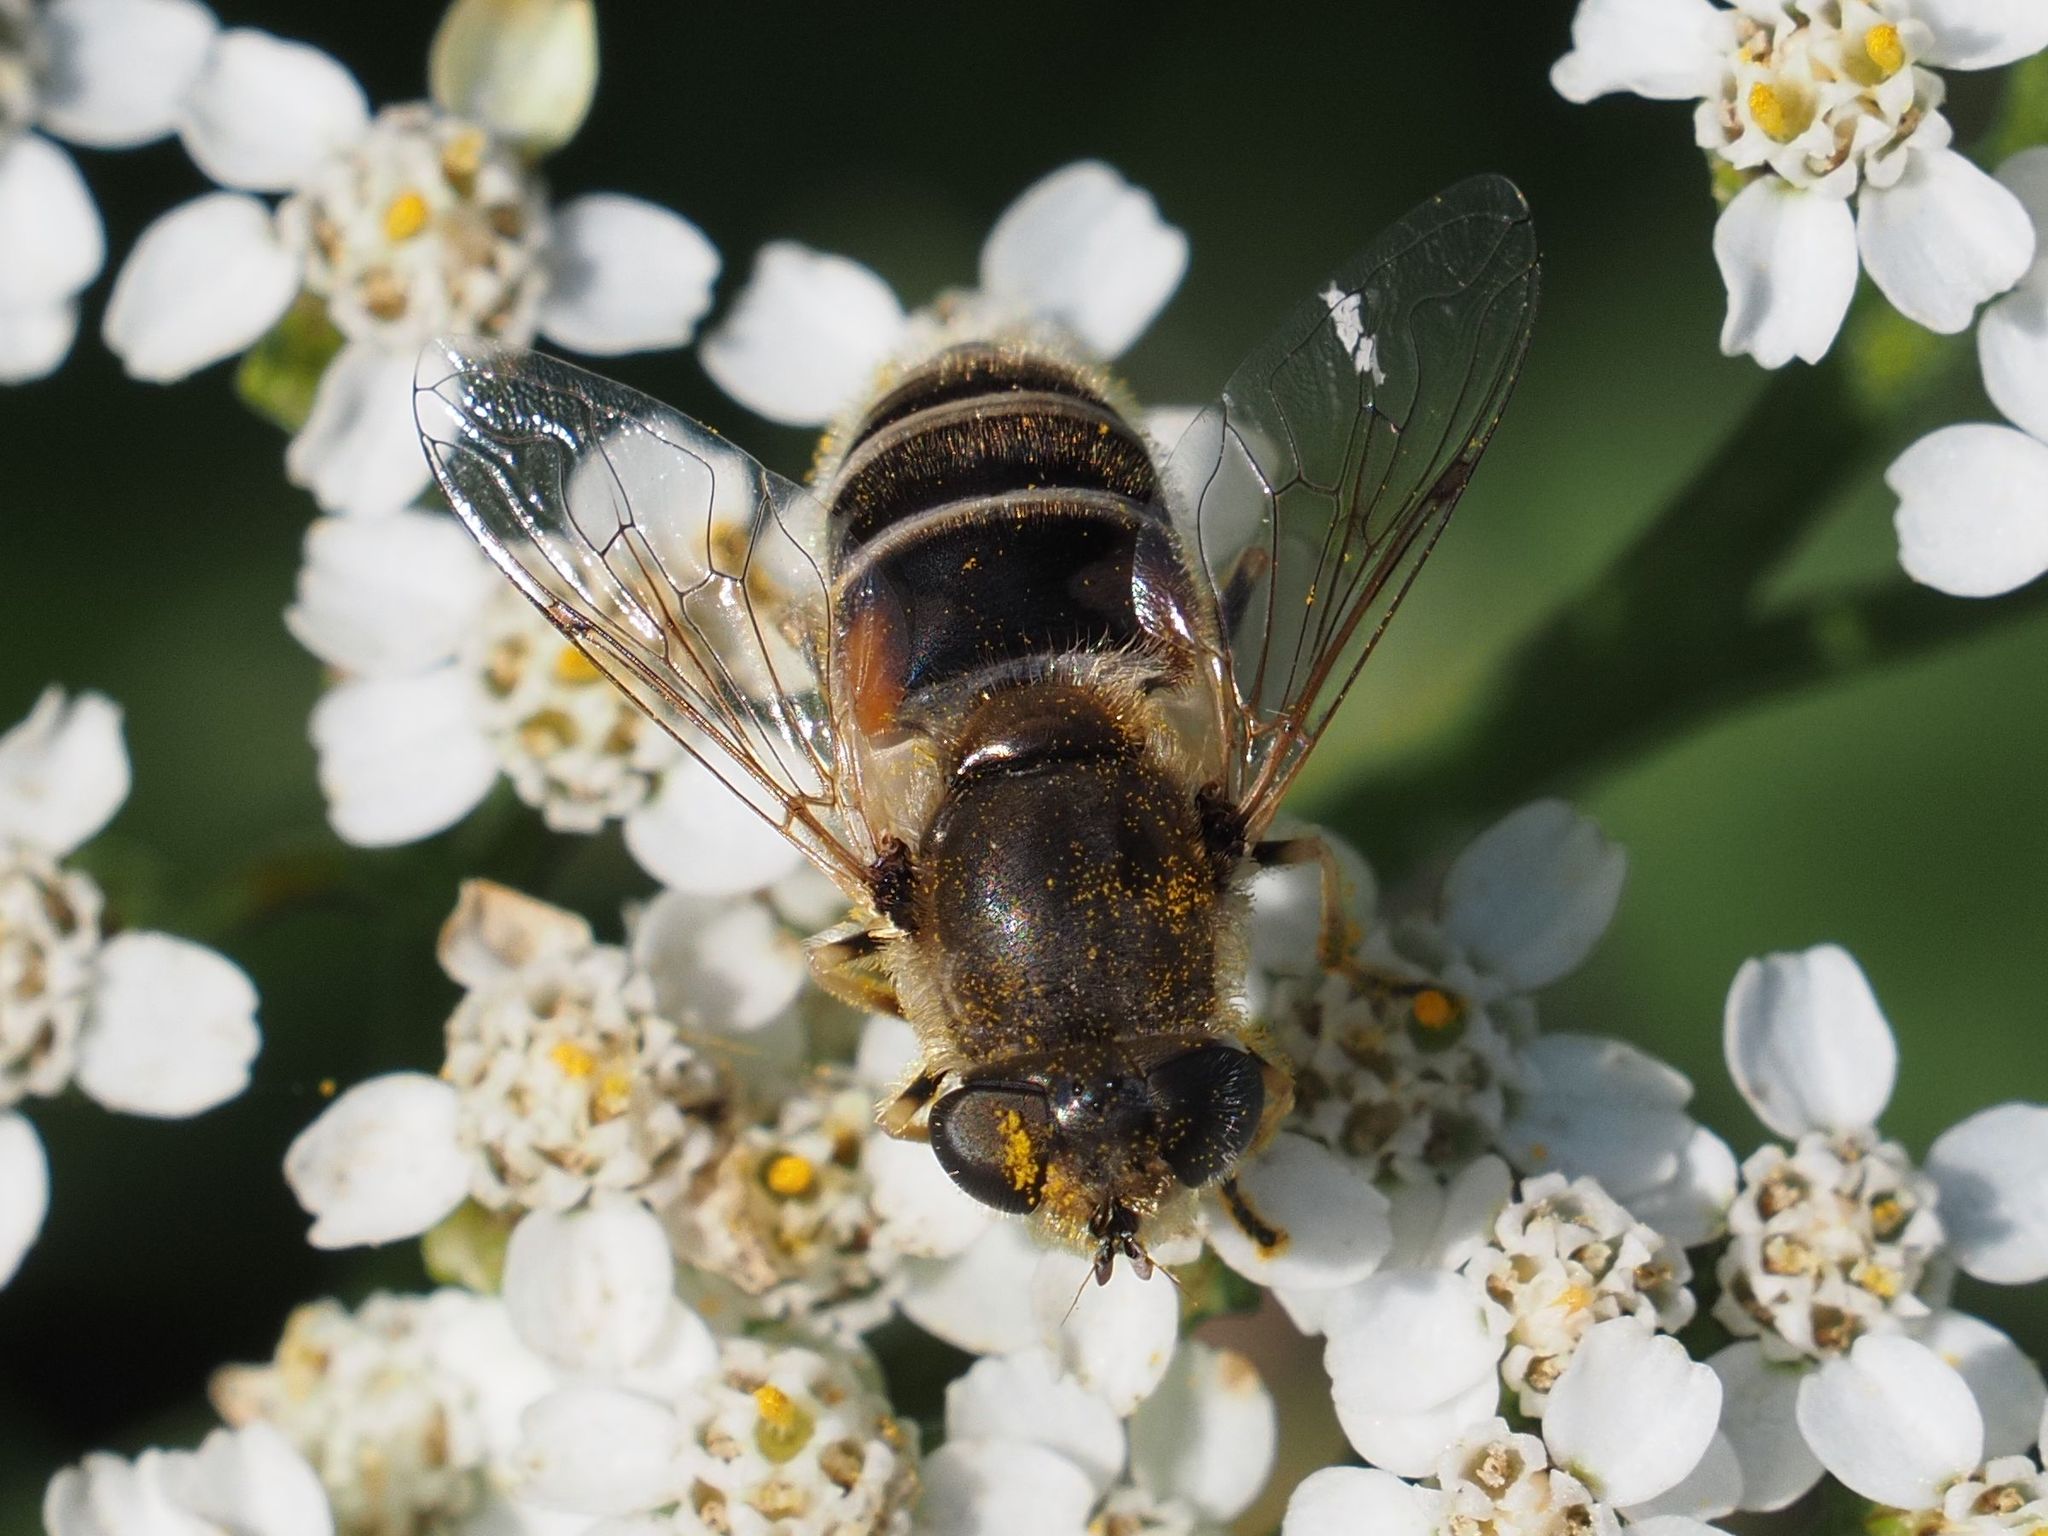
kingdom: Animalia
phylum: Arthropoda
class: Insecta
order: Diptera
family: Syrphidae
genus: Eristalis
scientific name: Eristalis arbustorum
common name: Hover fly
